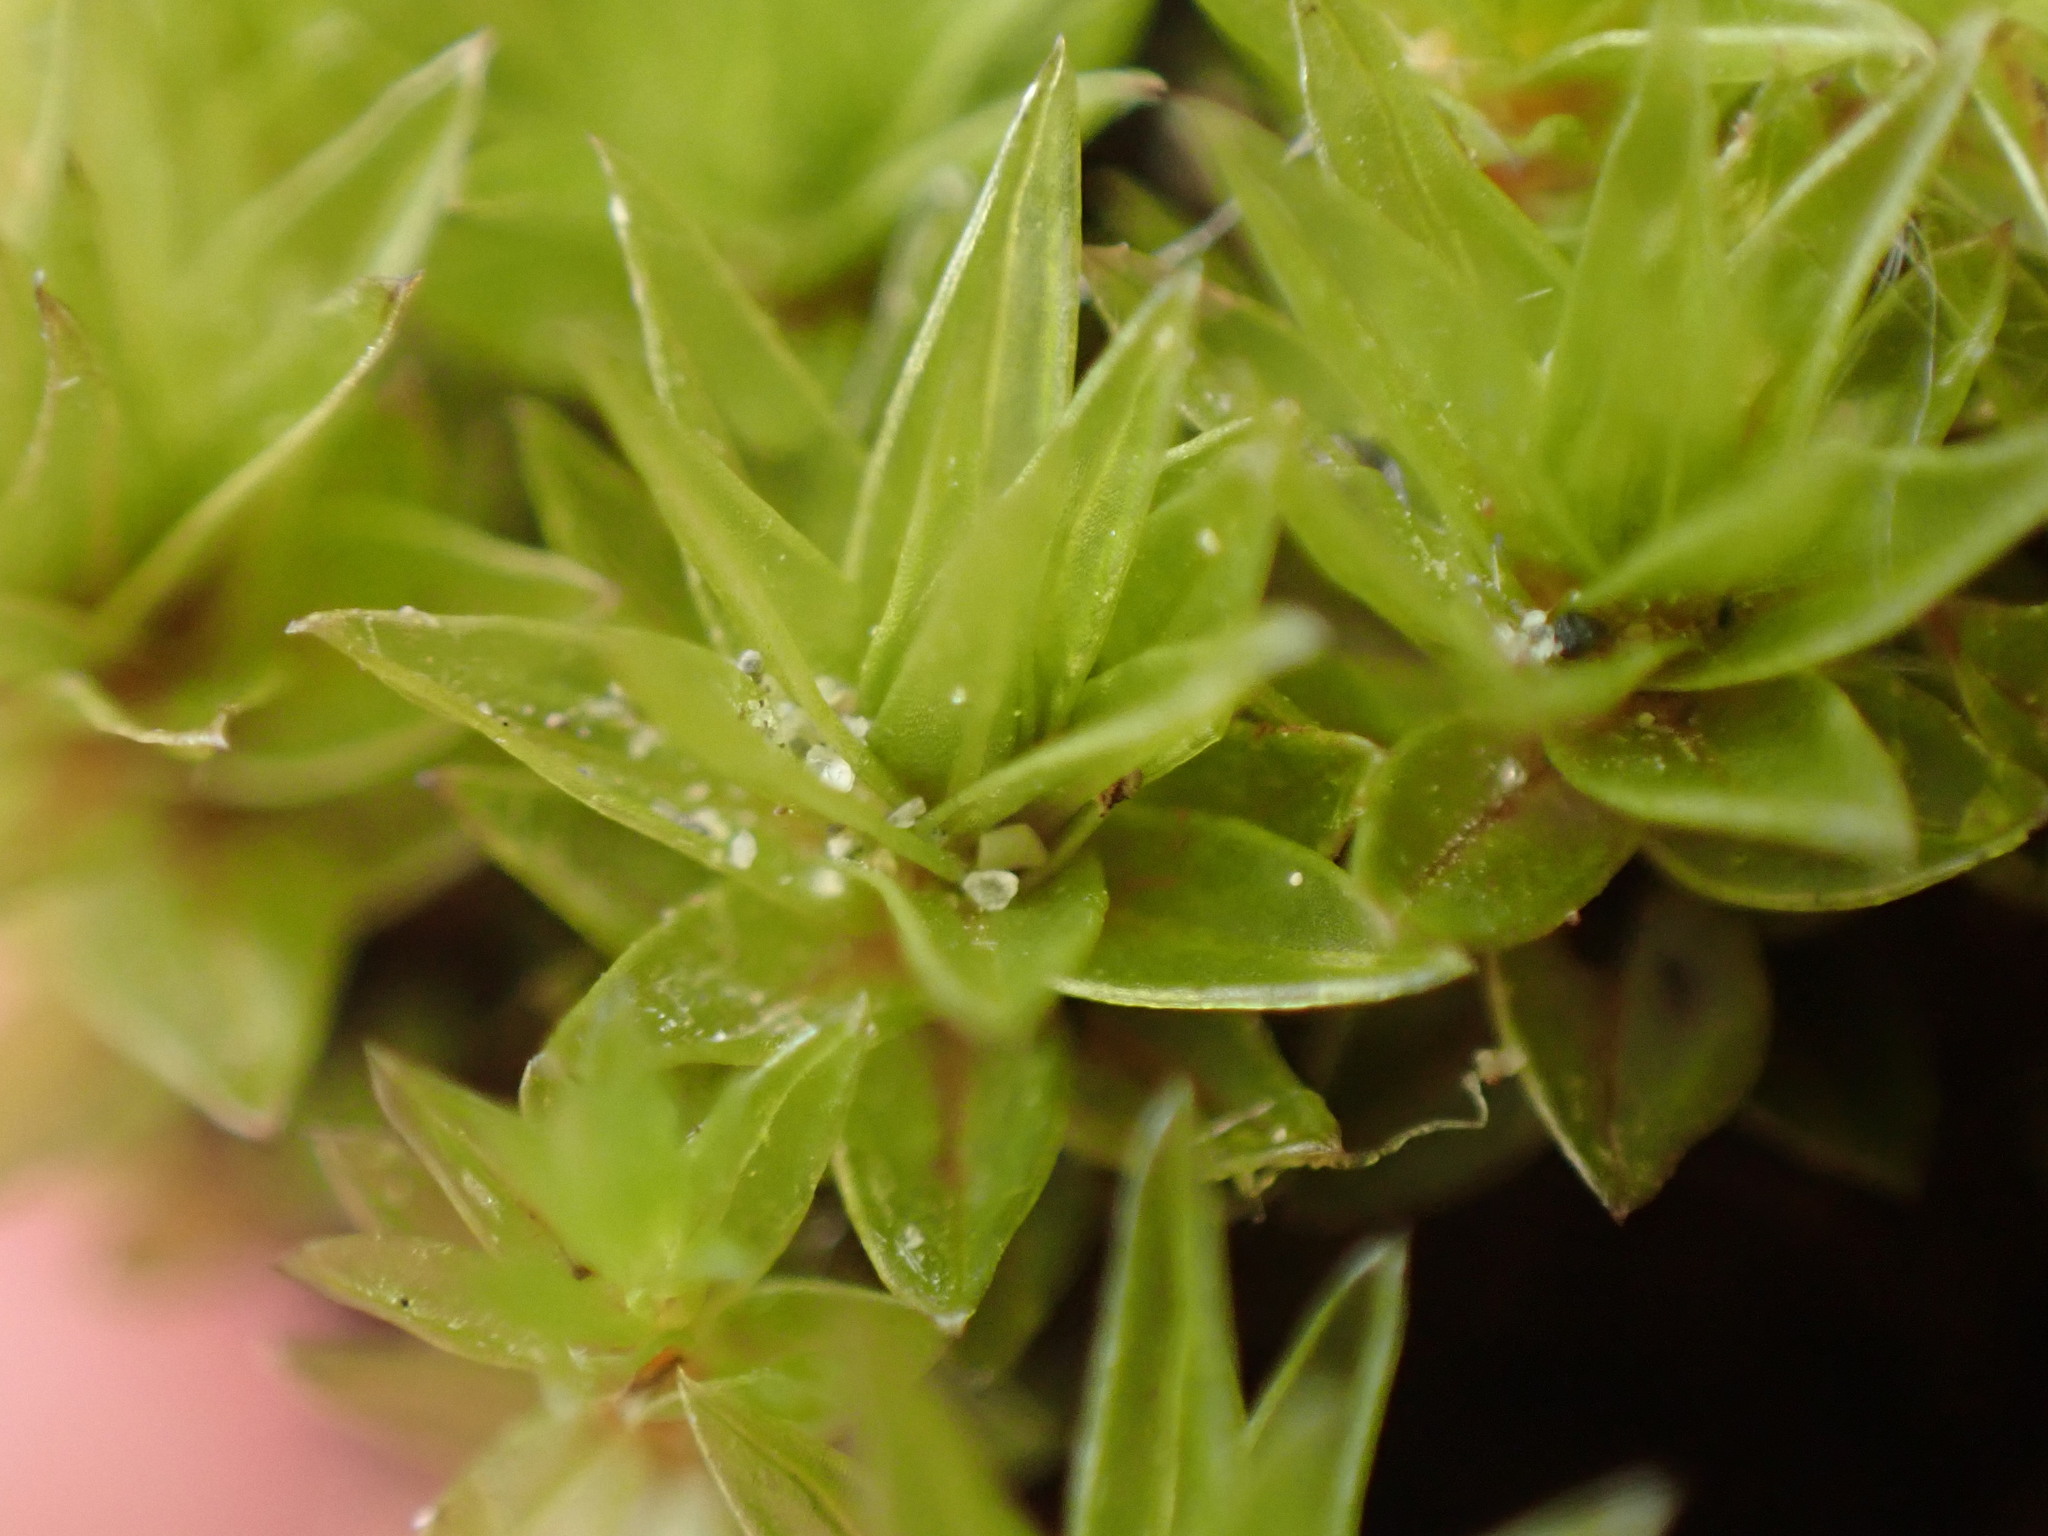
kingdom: Plantae
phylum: Bryophyta
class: Bryopsida
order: Bryales
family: Bryaceae
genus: Ptychostomum
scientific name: Ptychostomum pseudotriquetrum
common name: Long-leaved thread moss
